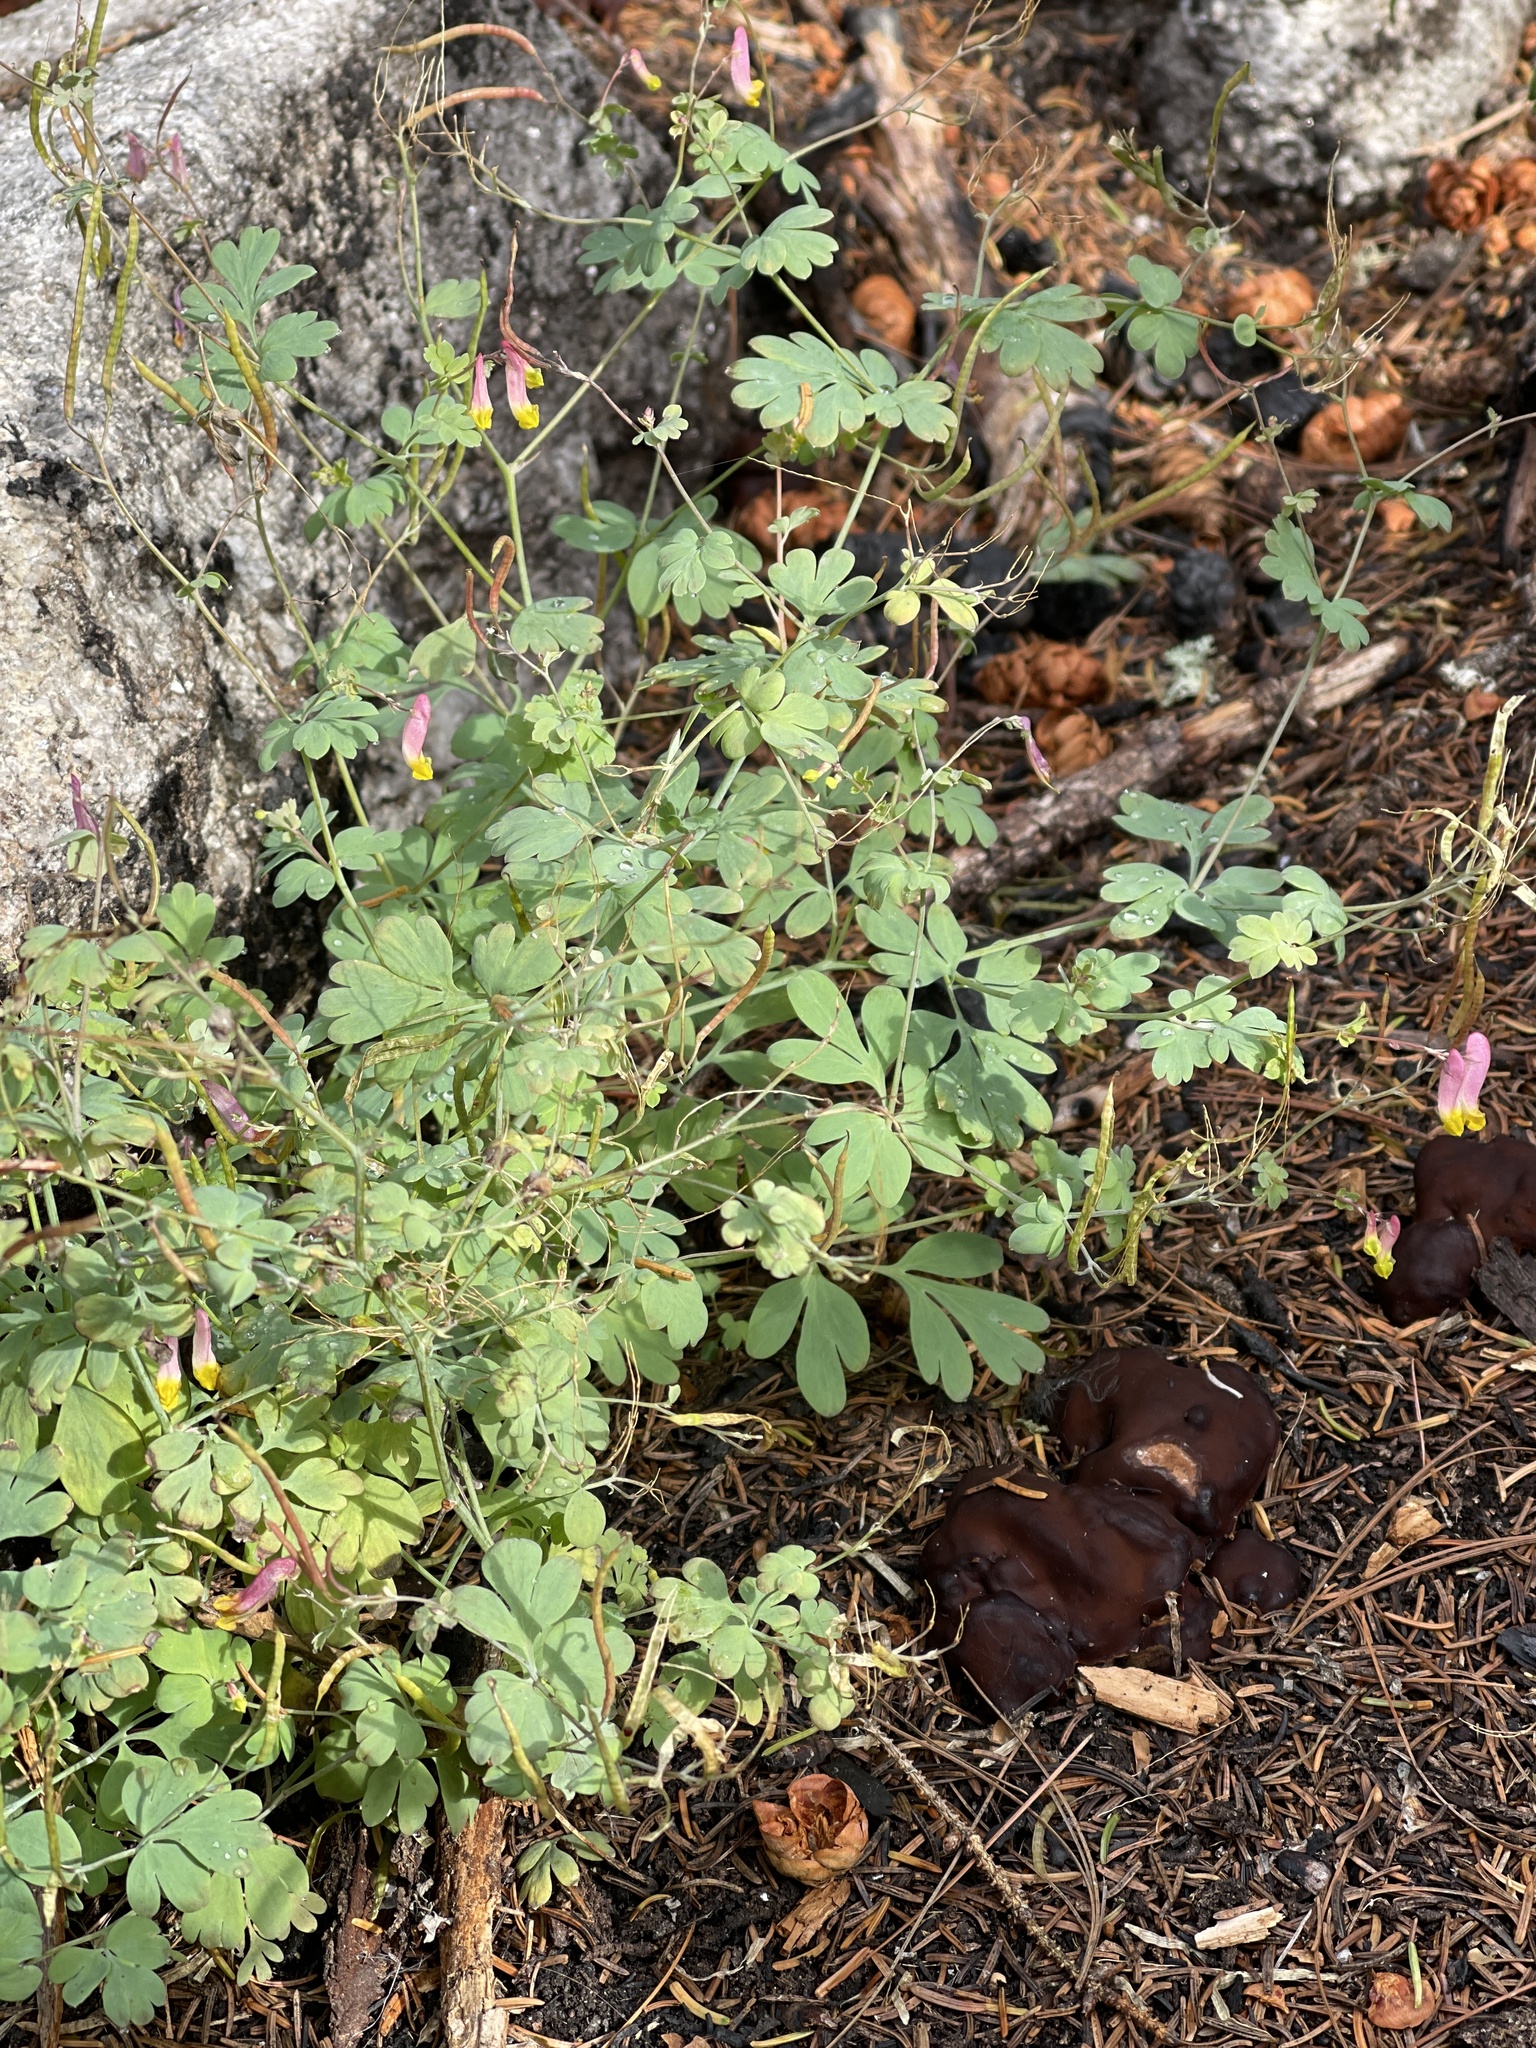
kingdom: Plantae
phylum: Tracheophyta
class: Magnoliopsida
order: Ranunculales
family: Papaveraceae
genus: Capnoides
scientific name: Capnoides sempervirens
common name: Rock harlequin
